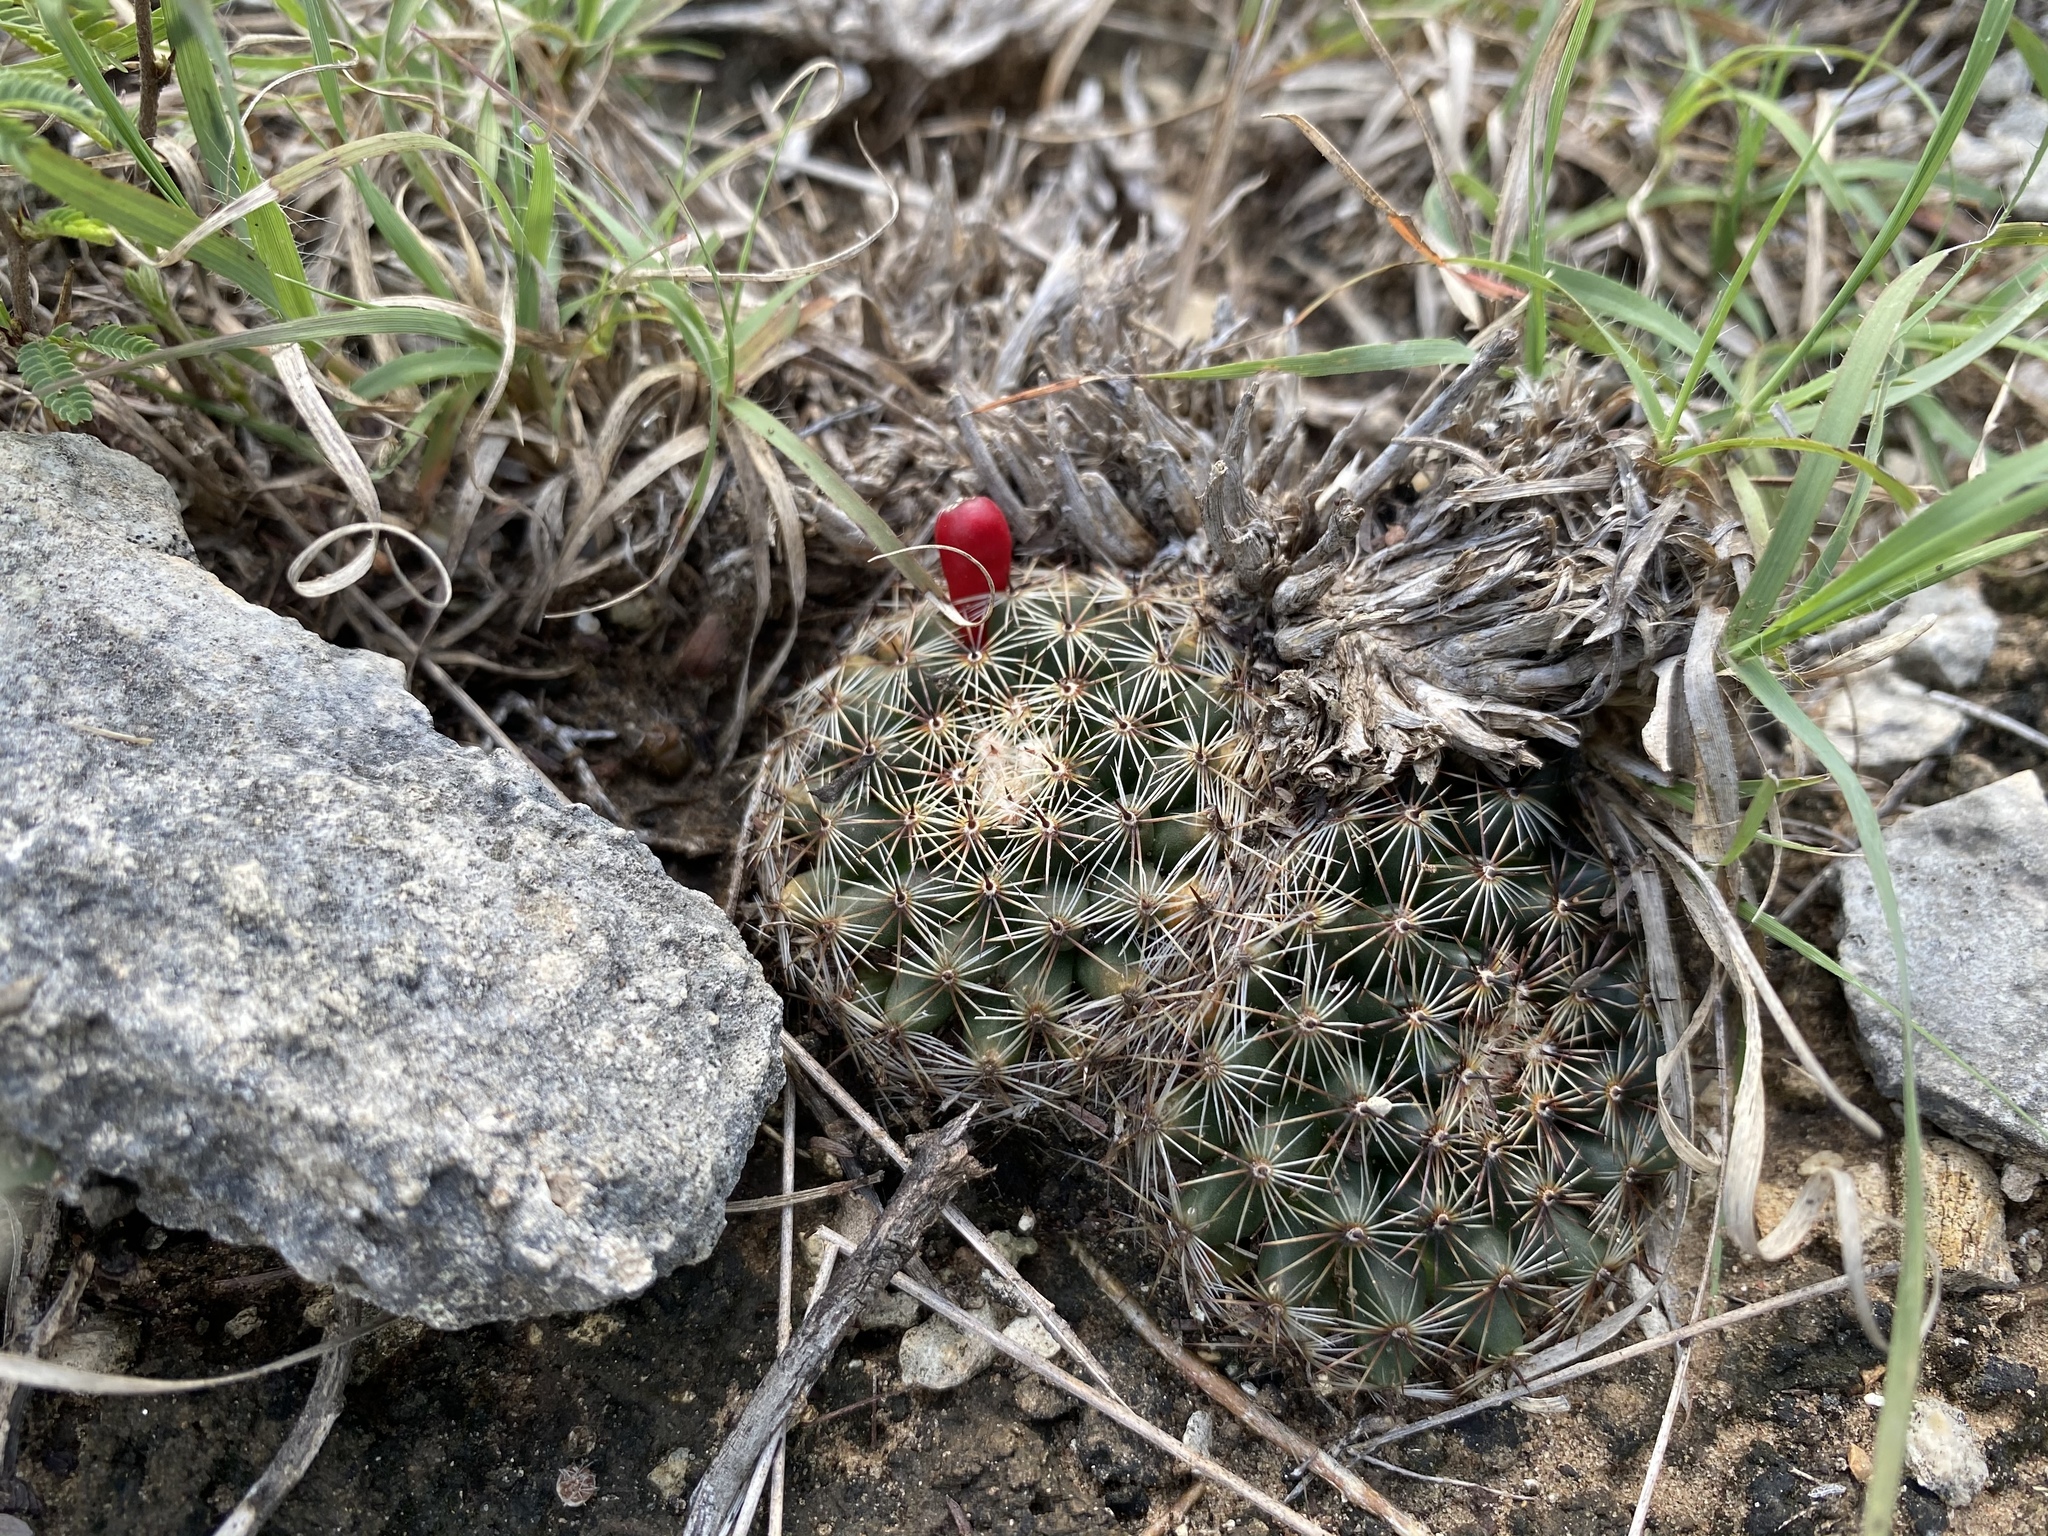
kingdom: Plantae
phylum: Tracheophyta
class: Magnoliopsida
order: Caryophyllales
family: Cactaceae
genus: Mammillaria
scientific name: Mammillaria heyderi
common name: Little nipple cactus
